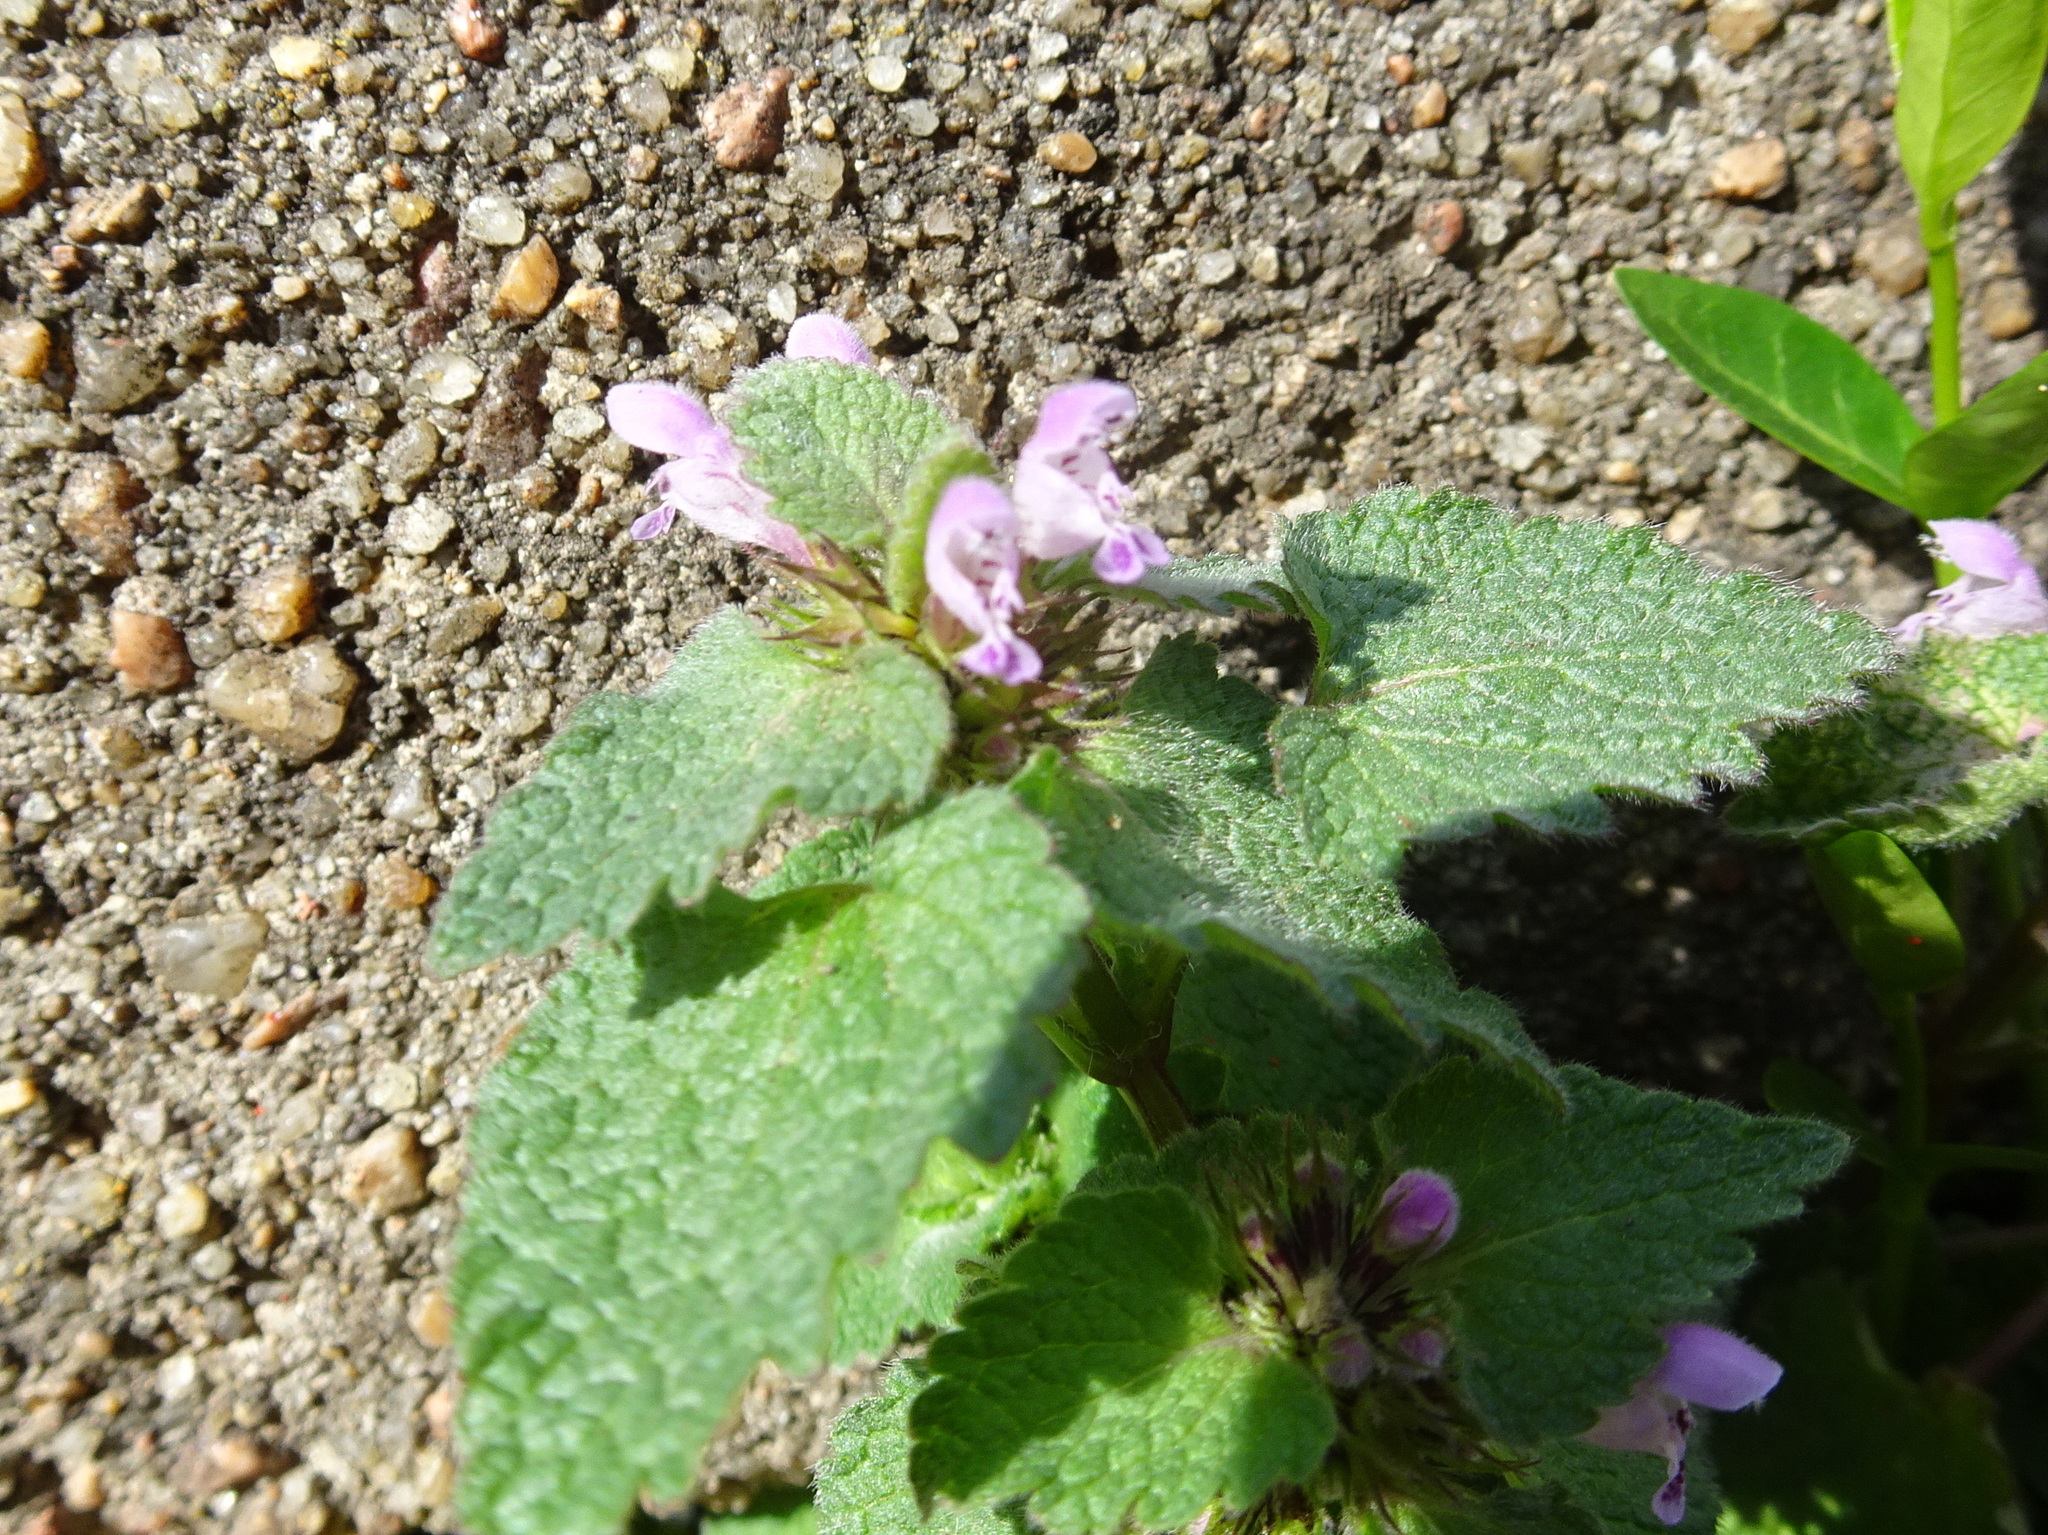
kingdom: Plantae
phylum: Tracheophyta
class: Magnoliopsida
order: Lamiales
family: Lamiaceae
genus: Lamium
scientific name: Lamium purpureum
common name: Red dead-nettle
